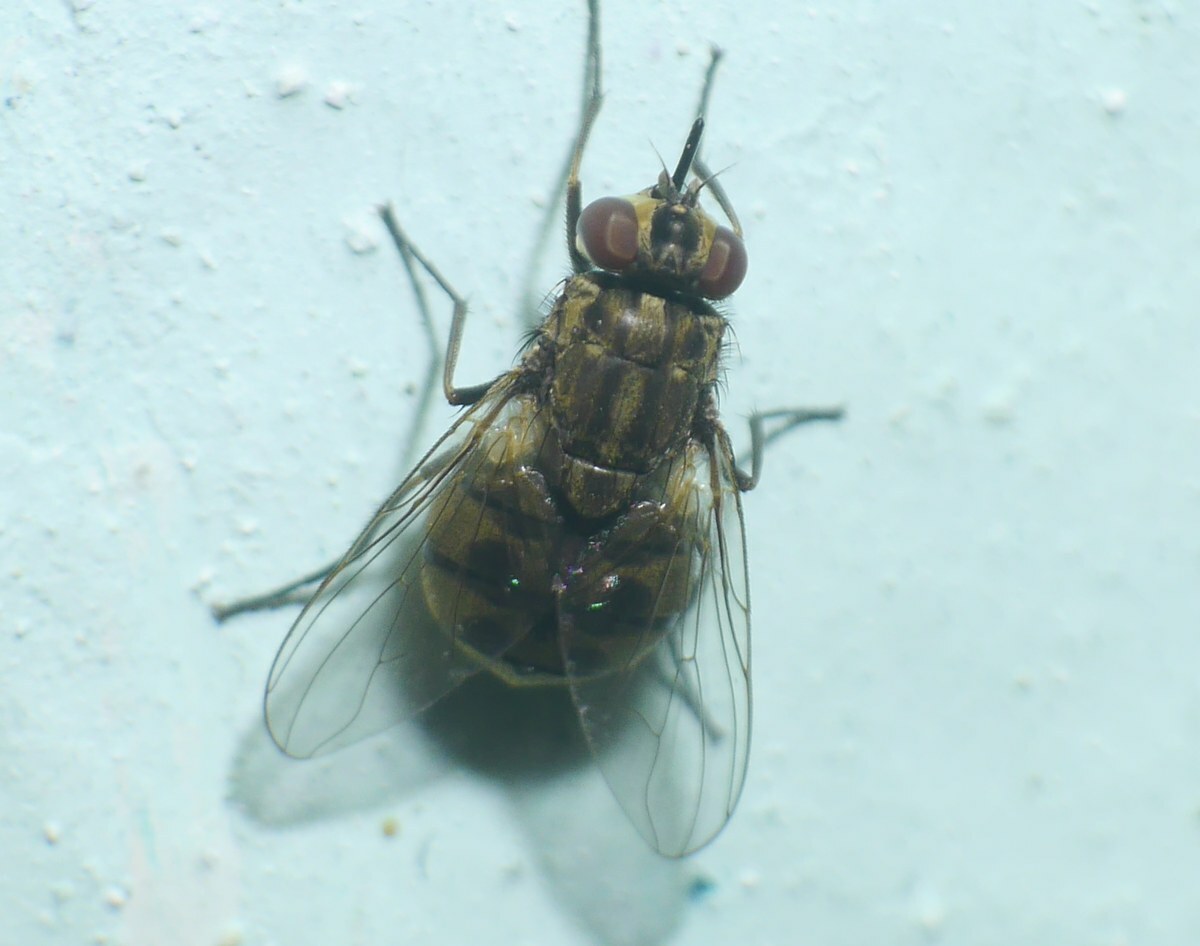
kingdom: Animalia
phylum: Arthropoda
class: Insecta
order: Diptera
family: Muscidae
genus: Stomoxys
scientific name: Stomoxys calcitrans
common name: Stable fly
